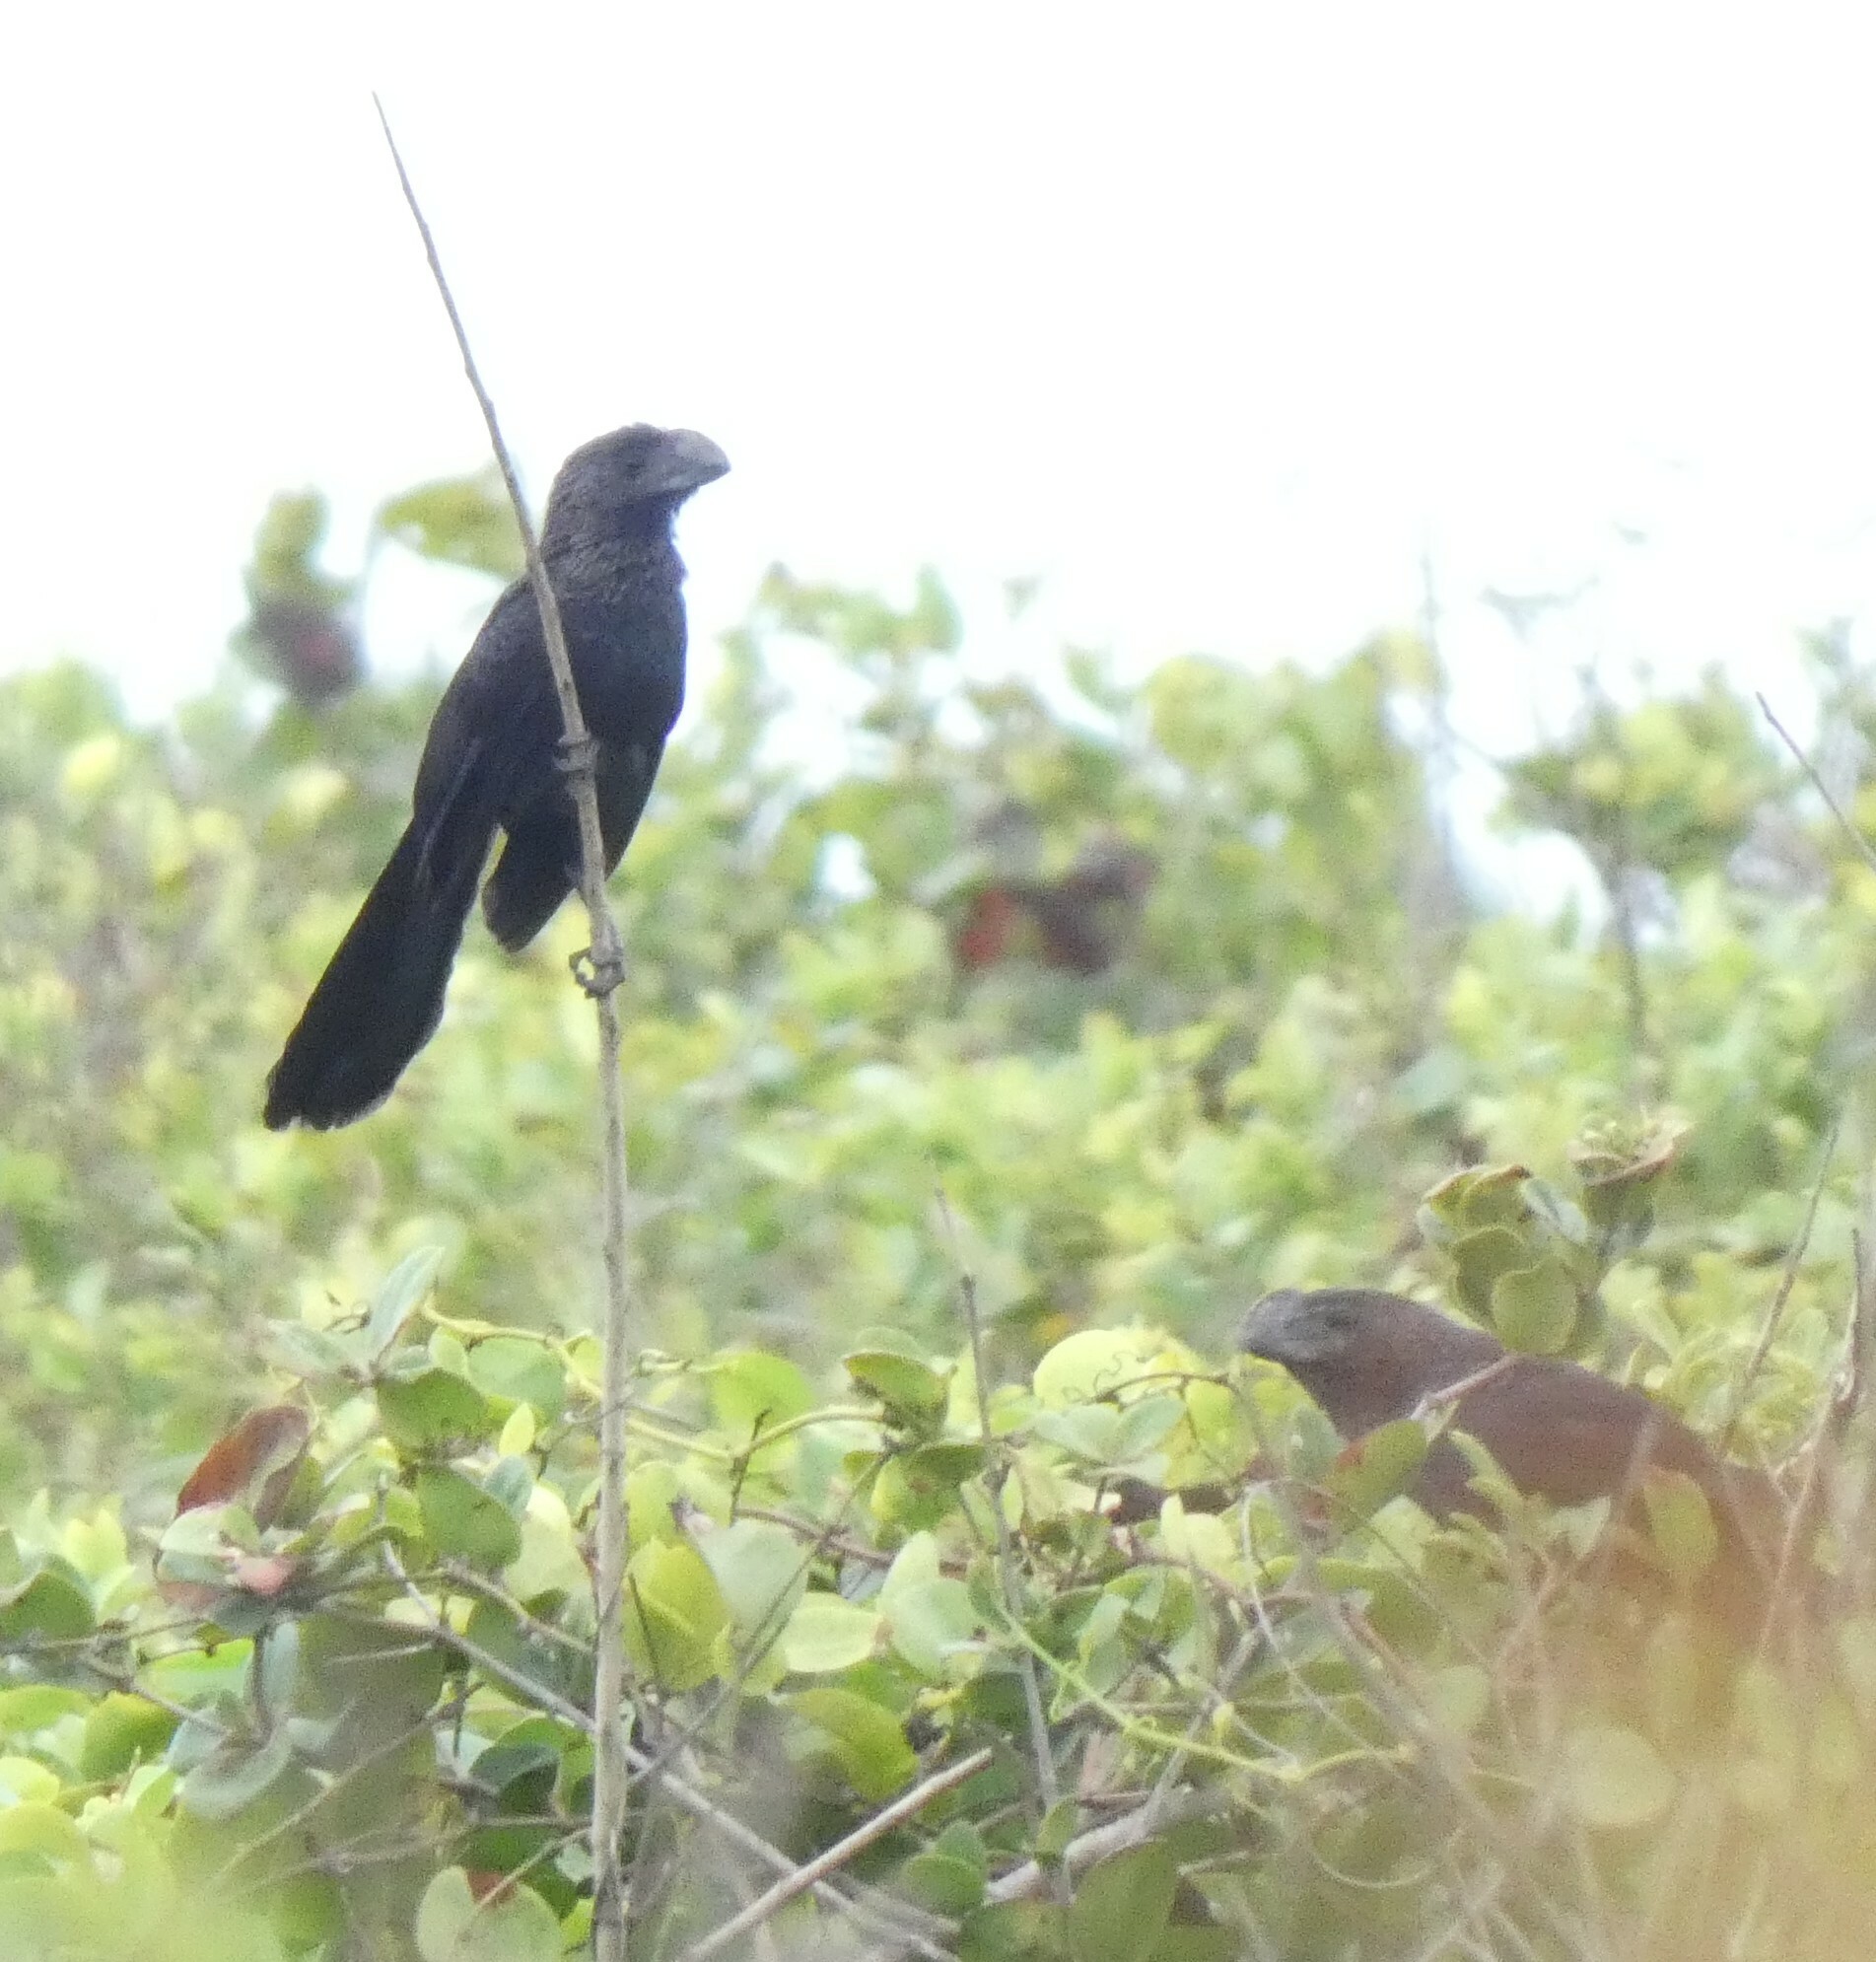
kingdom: Animalia
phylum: Chordata
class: Aves
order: Cuculiformes
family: Cuculidae
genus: Crotophaga
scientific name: Crotophaga ani
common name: Smooth-billed ani
